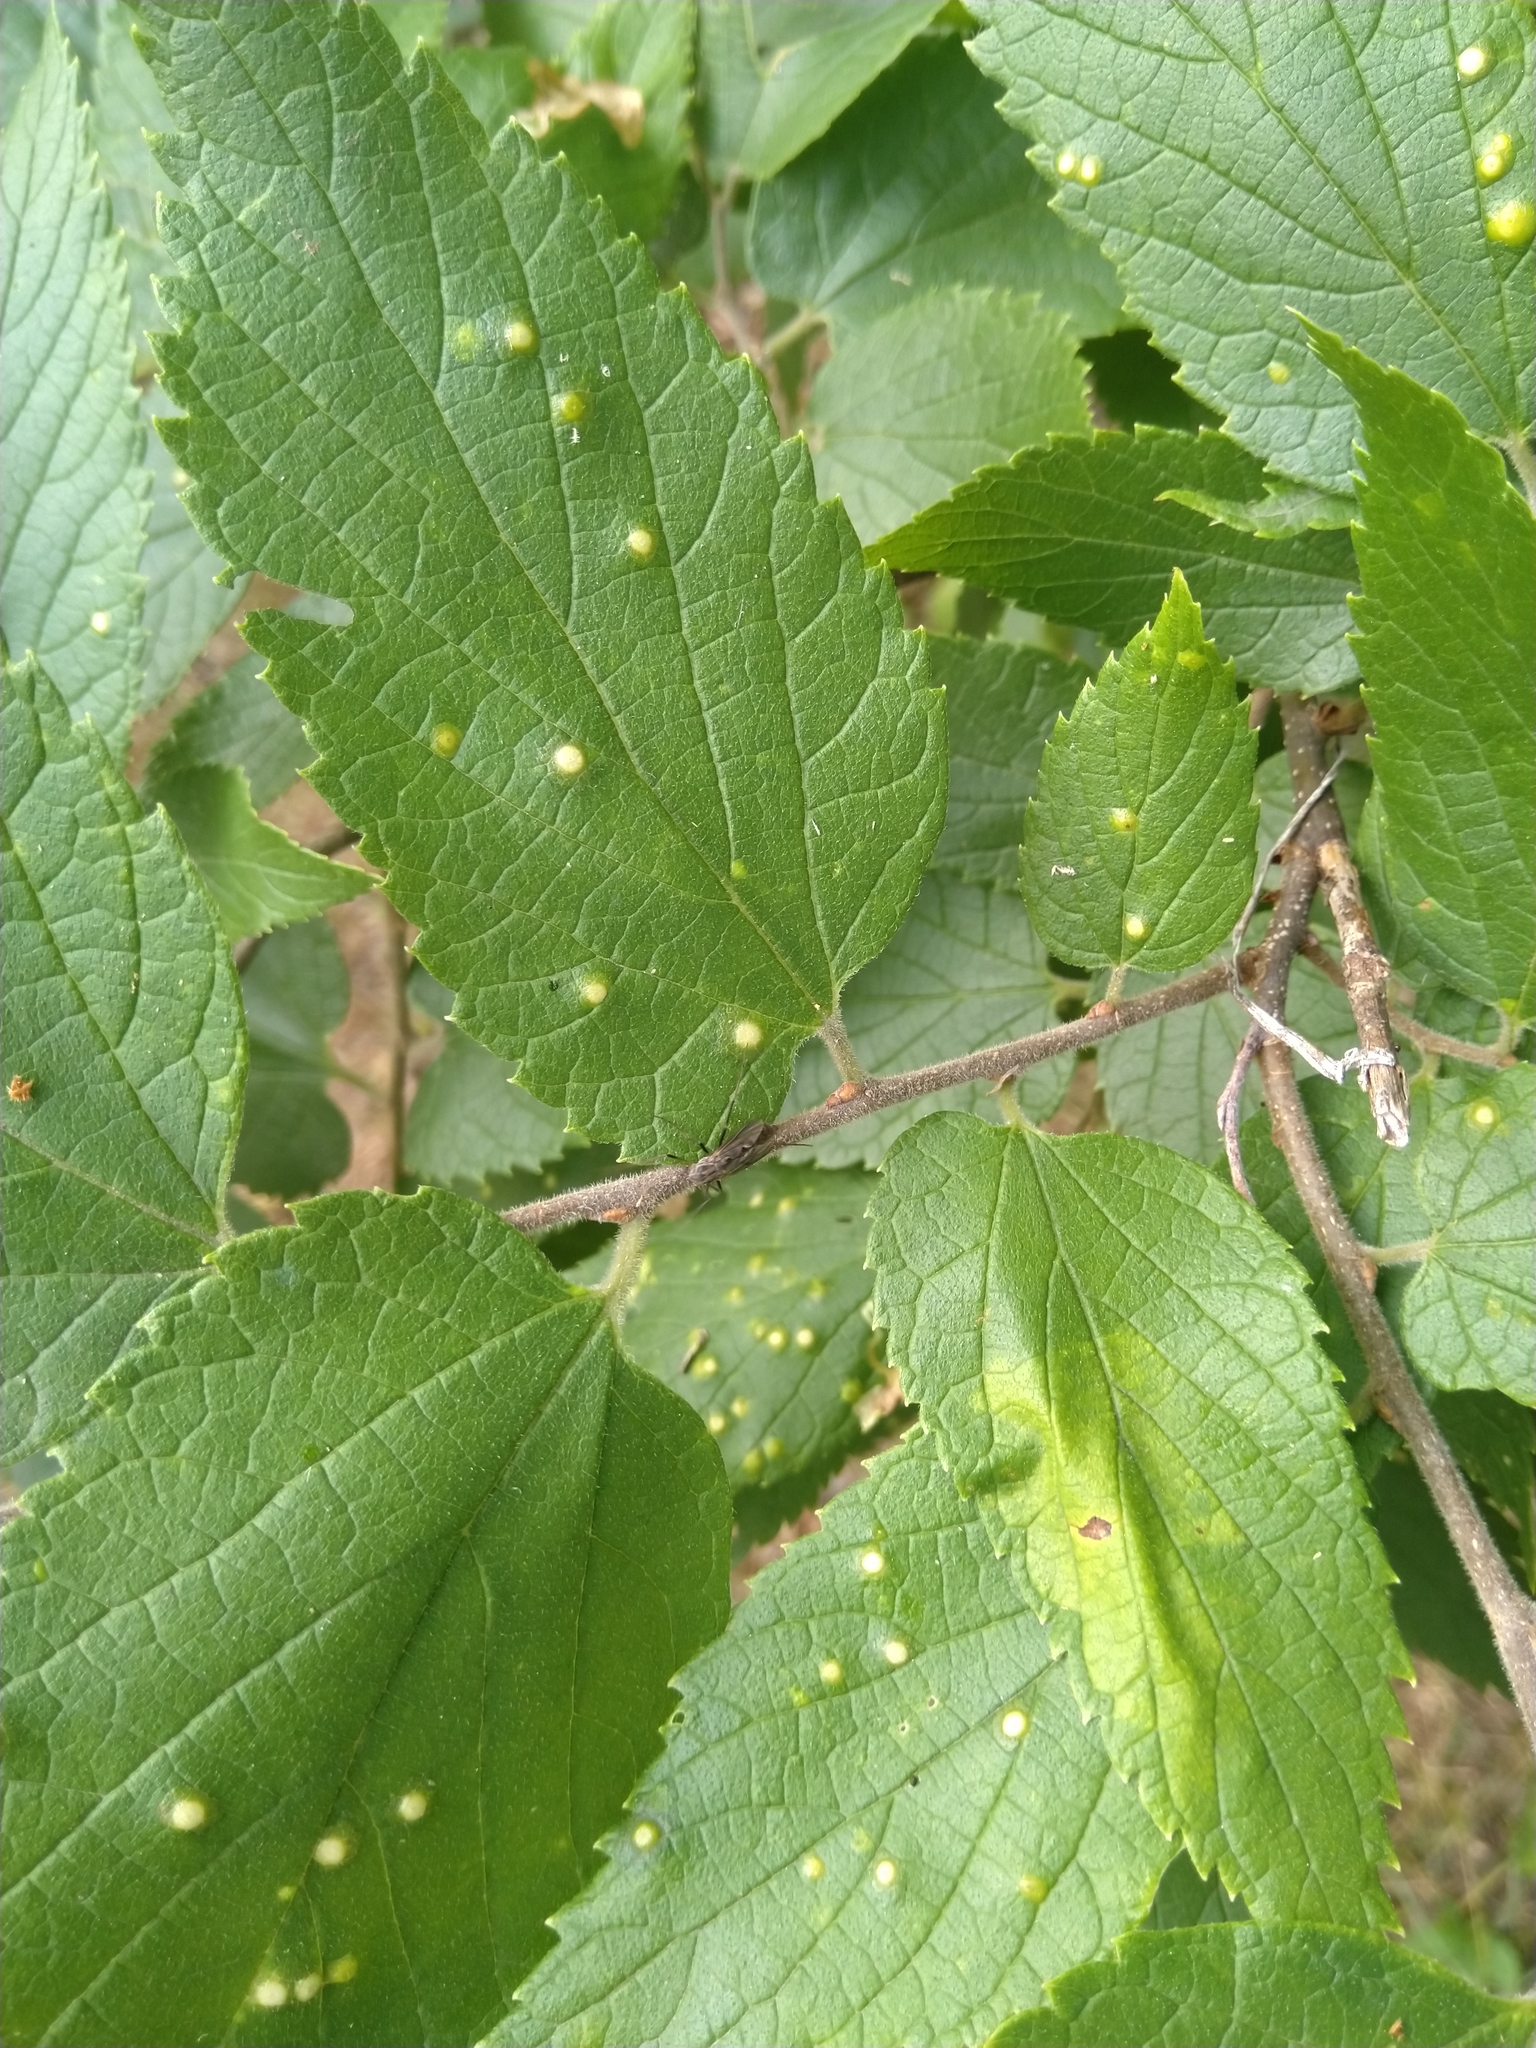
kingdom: Animalia
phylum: Arthropoda
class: Insecta
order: Hemiptera
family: Aphalaridae
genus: Pachypsylla
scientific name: Pachypsylla celtidisvesicula
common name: Hackberry blister gall psyllid
